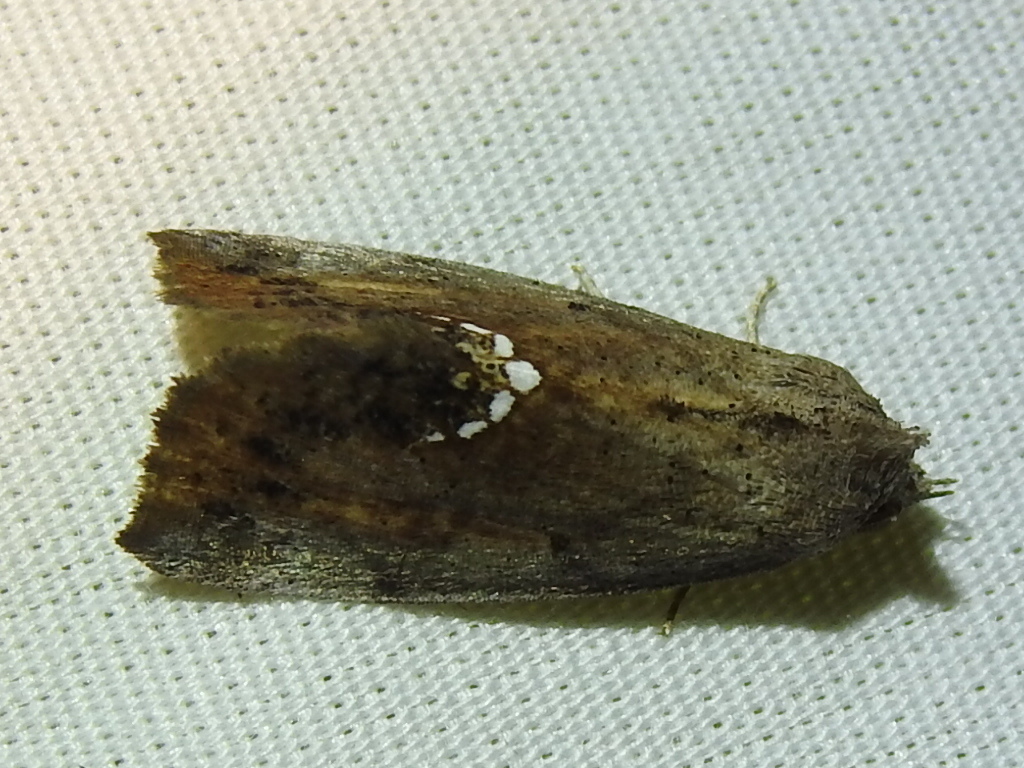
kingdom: Animalia
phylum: Arthropoda
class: Insecta
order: Lepidoptera
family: Erebidae
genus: Hypsoropha
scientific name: Hypsoropha hormos
